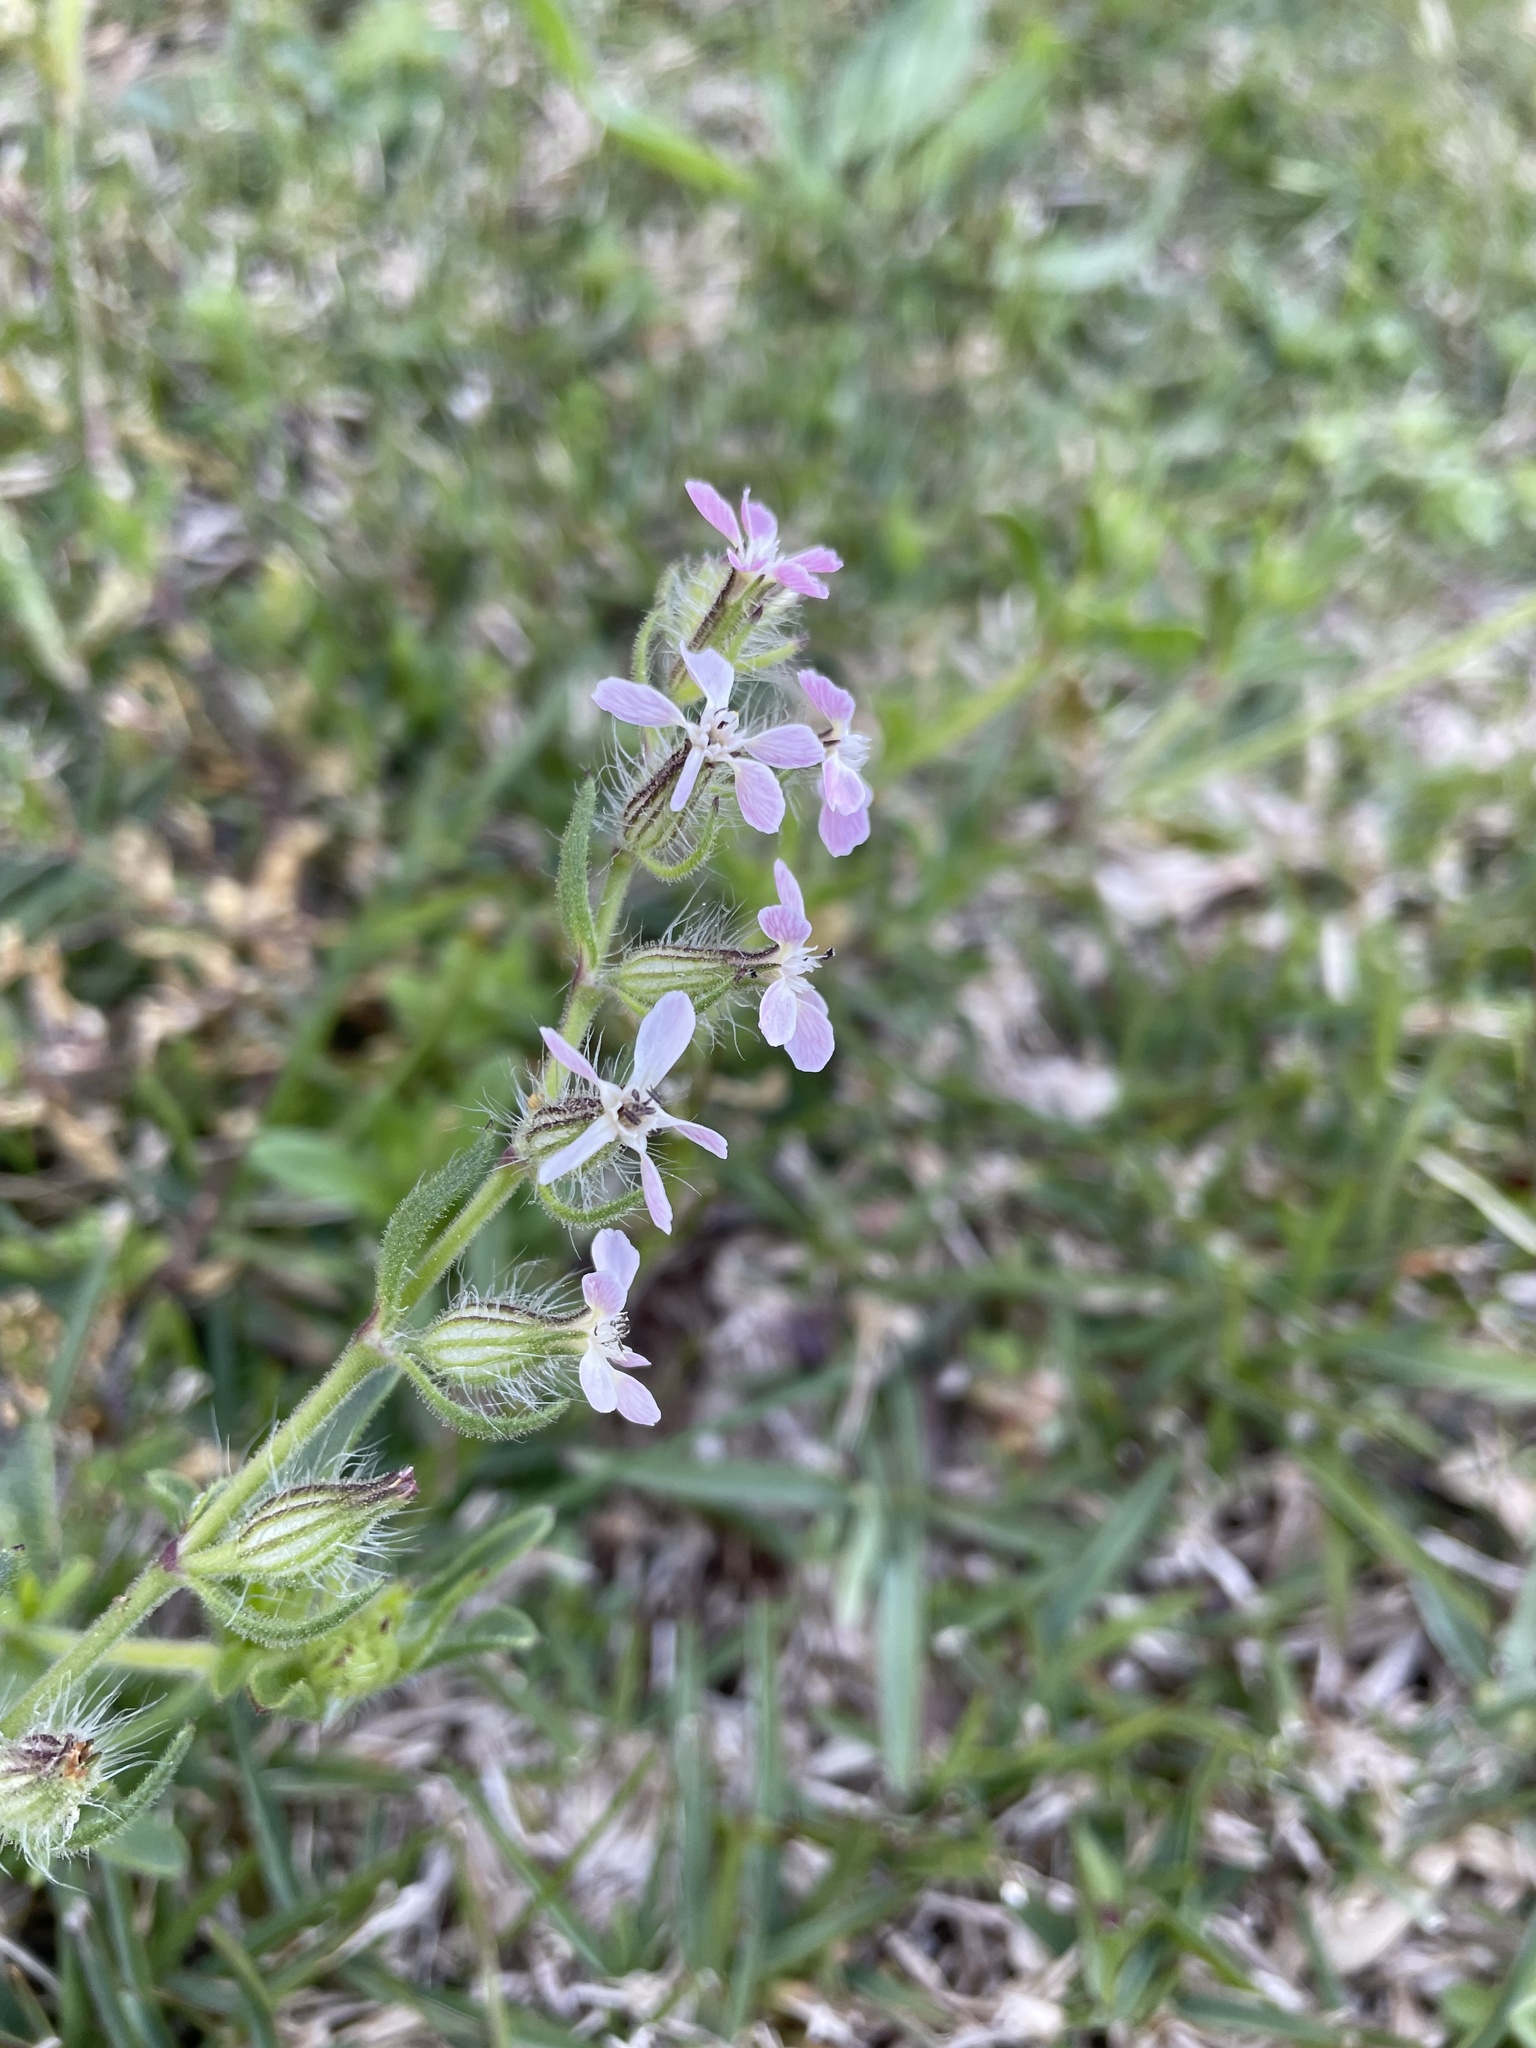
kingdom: Plantae
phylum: Tracheophyta
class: Magnoliopsida
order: Caryophyllales
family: Caryophyllaceae
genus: Silene
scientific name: Silene gallica
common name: Small-flowered catchfly
